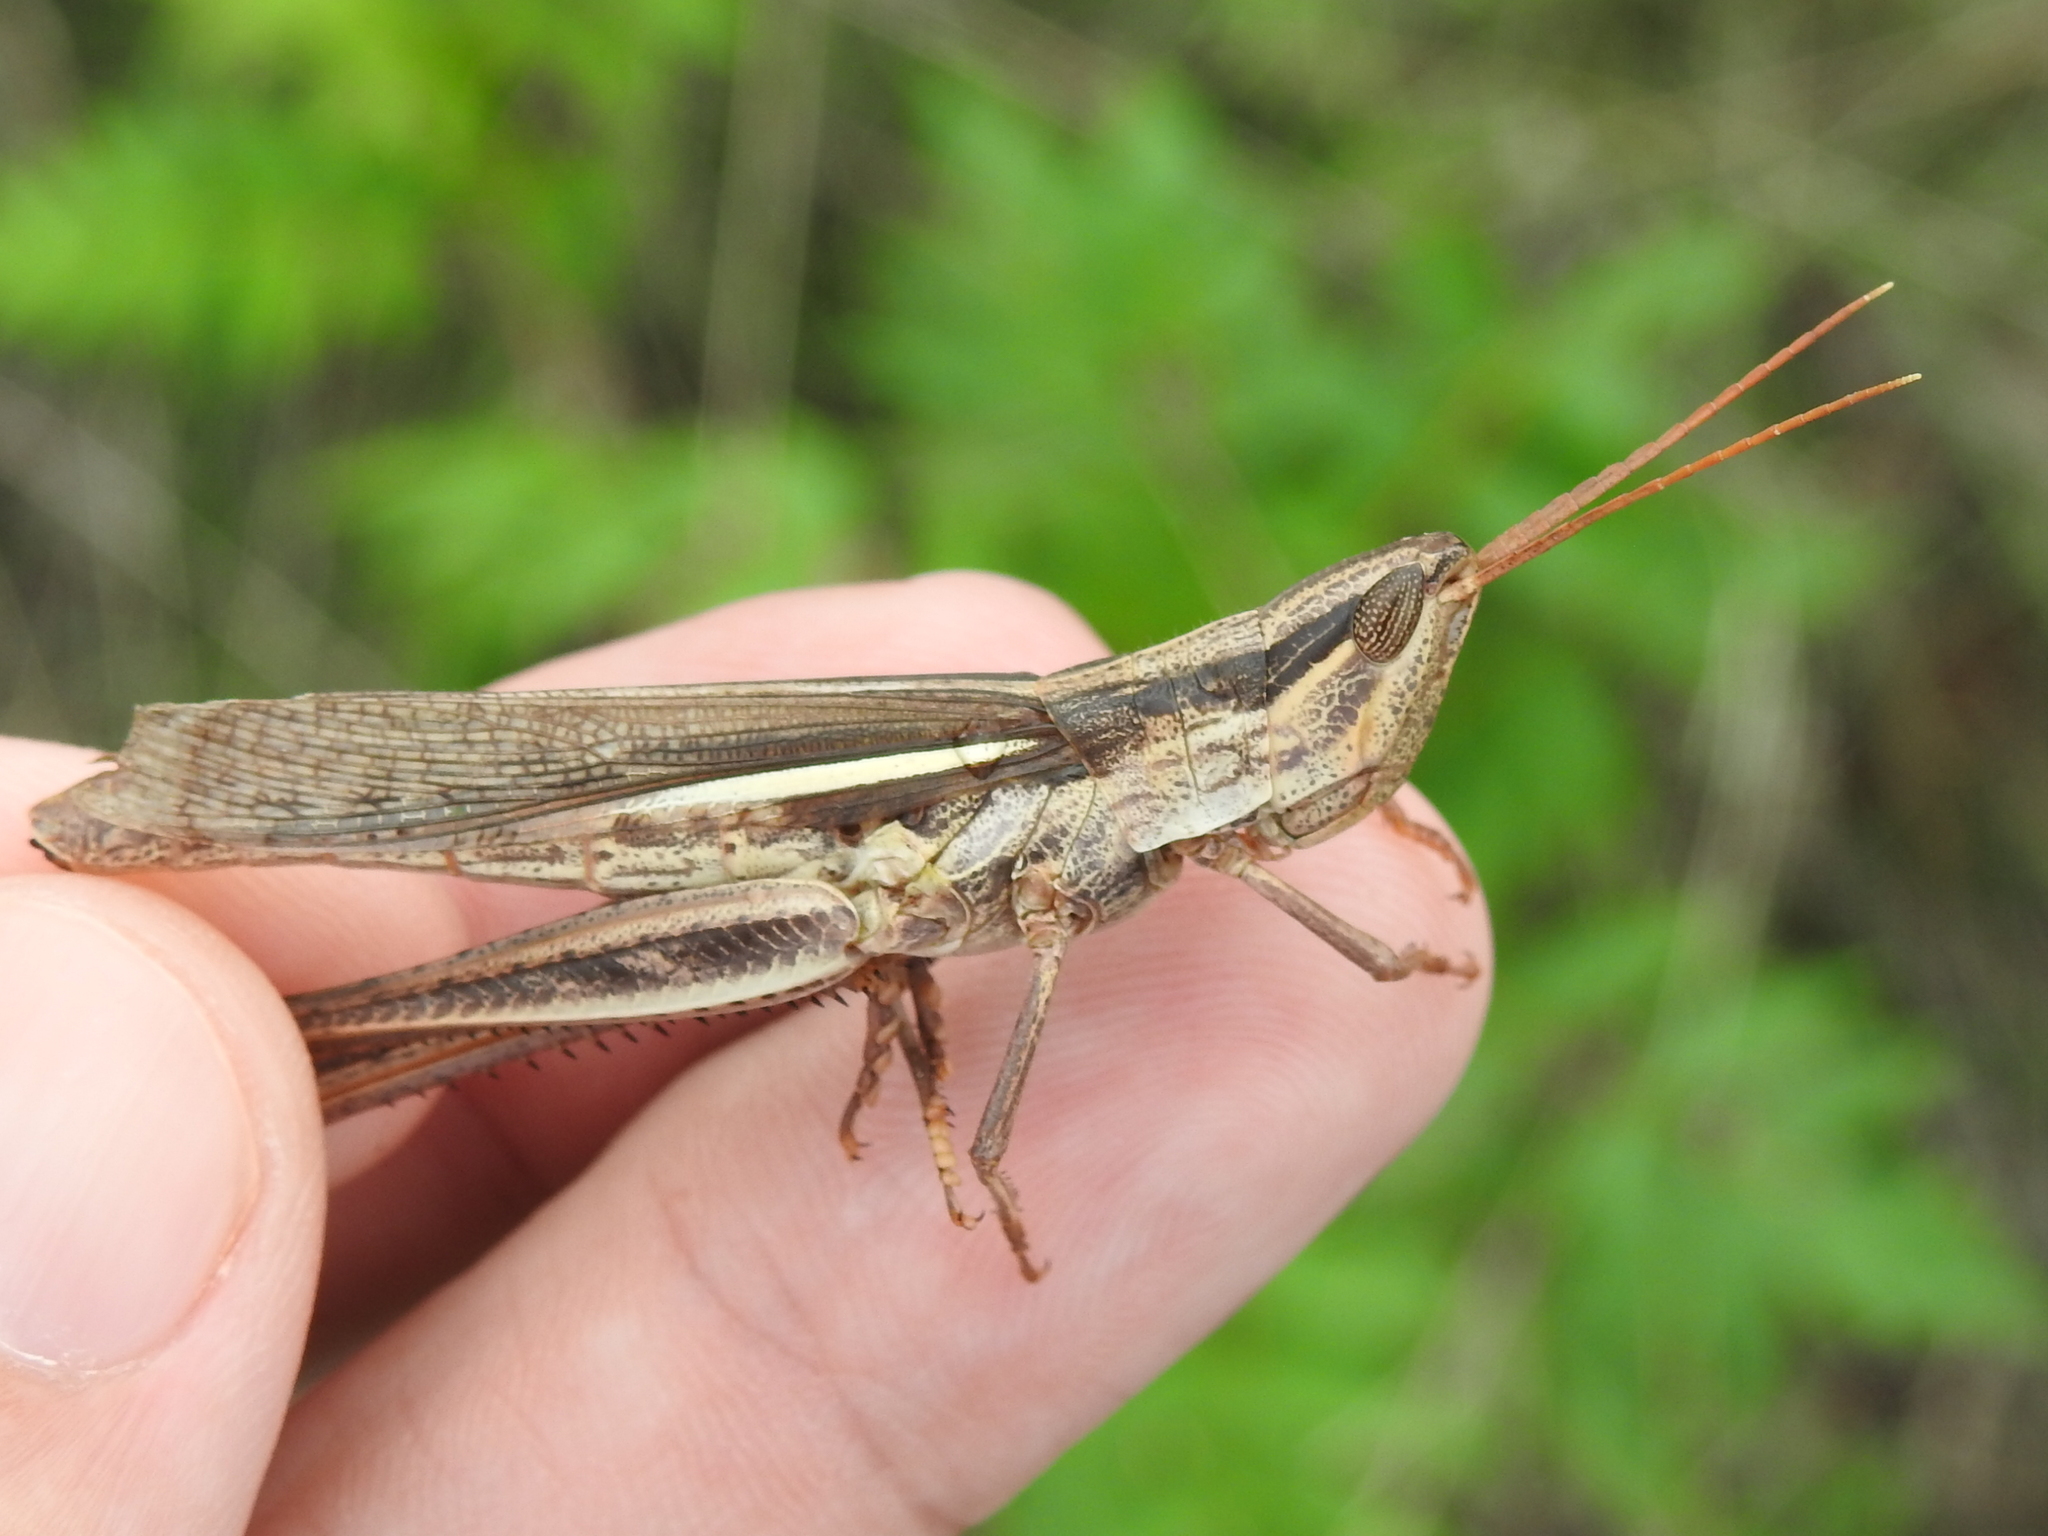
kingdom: Animalia
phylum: Arthropoda
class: Insecta
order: Orthoptera
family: Acrididae
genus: Mermiria
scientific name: Mermiria bivittata
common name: Two-striped mermiria grasshopper
